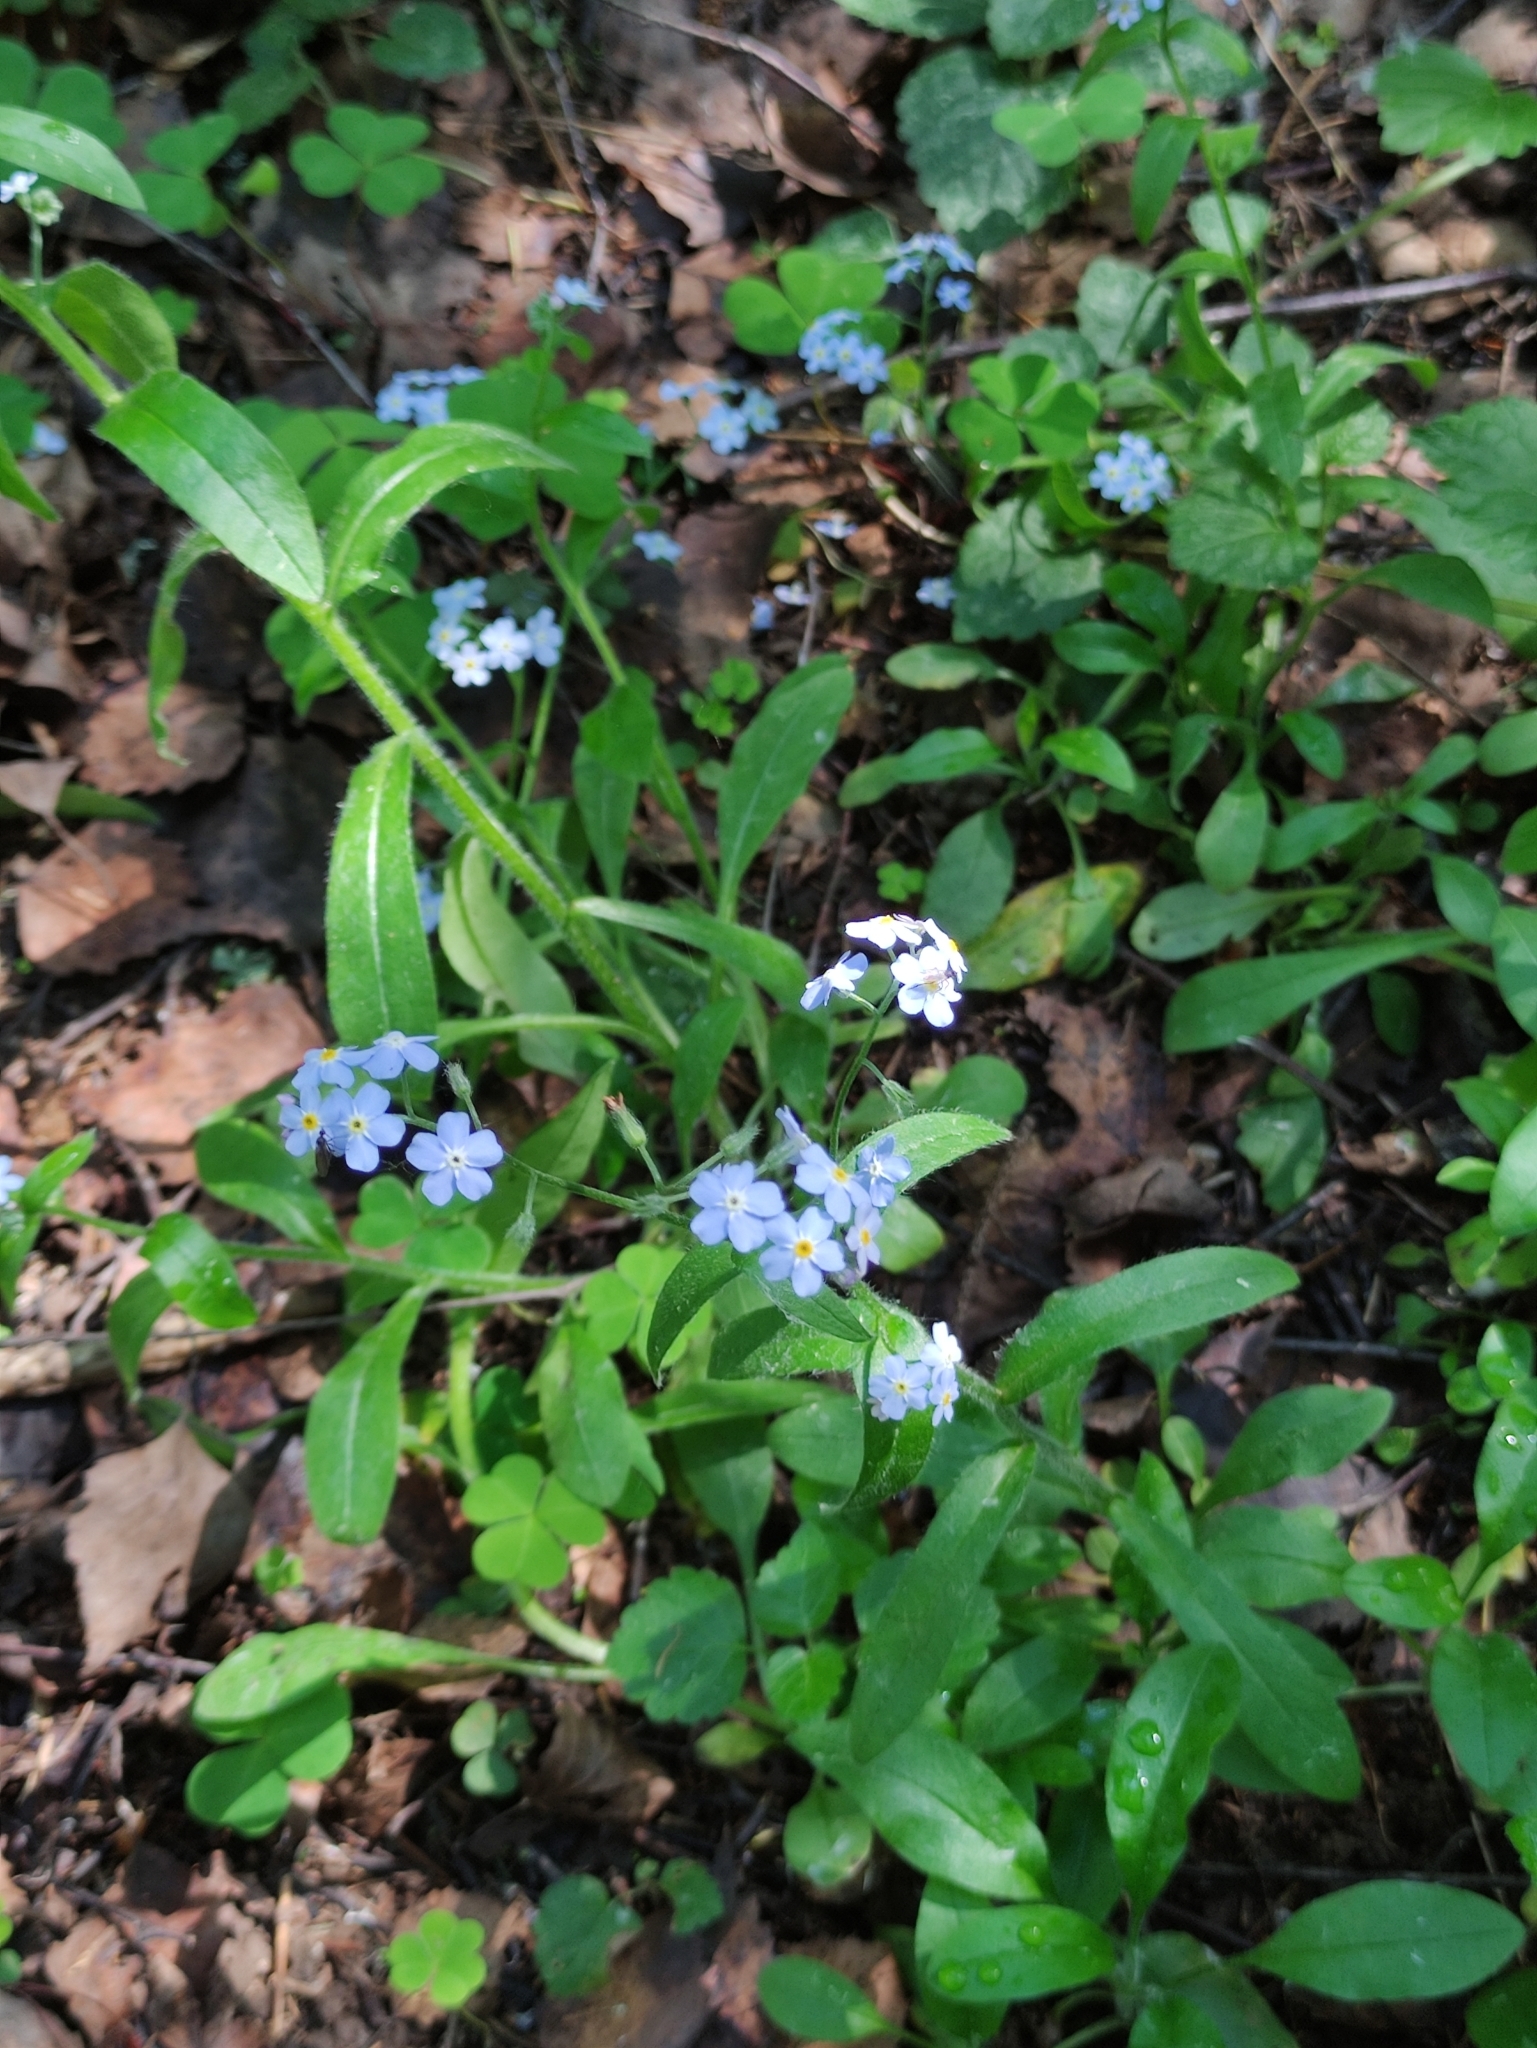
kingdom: Plantae
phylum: Tracheophyta
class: Magnoliopsida
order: Boraginales
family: Boraginaceae
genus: Myosotis
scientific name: Myosotis sylvatica
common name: Wood forget-me-not
